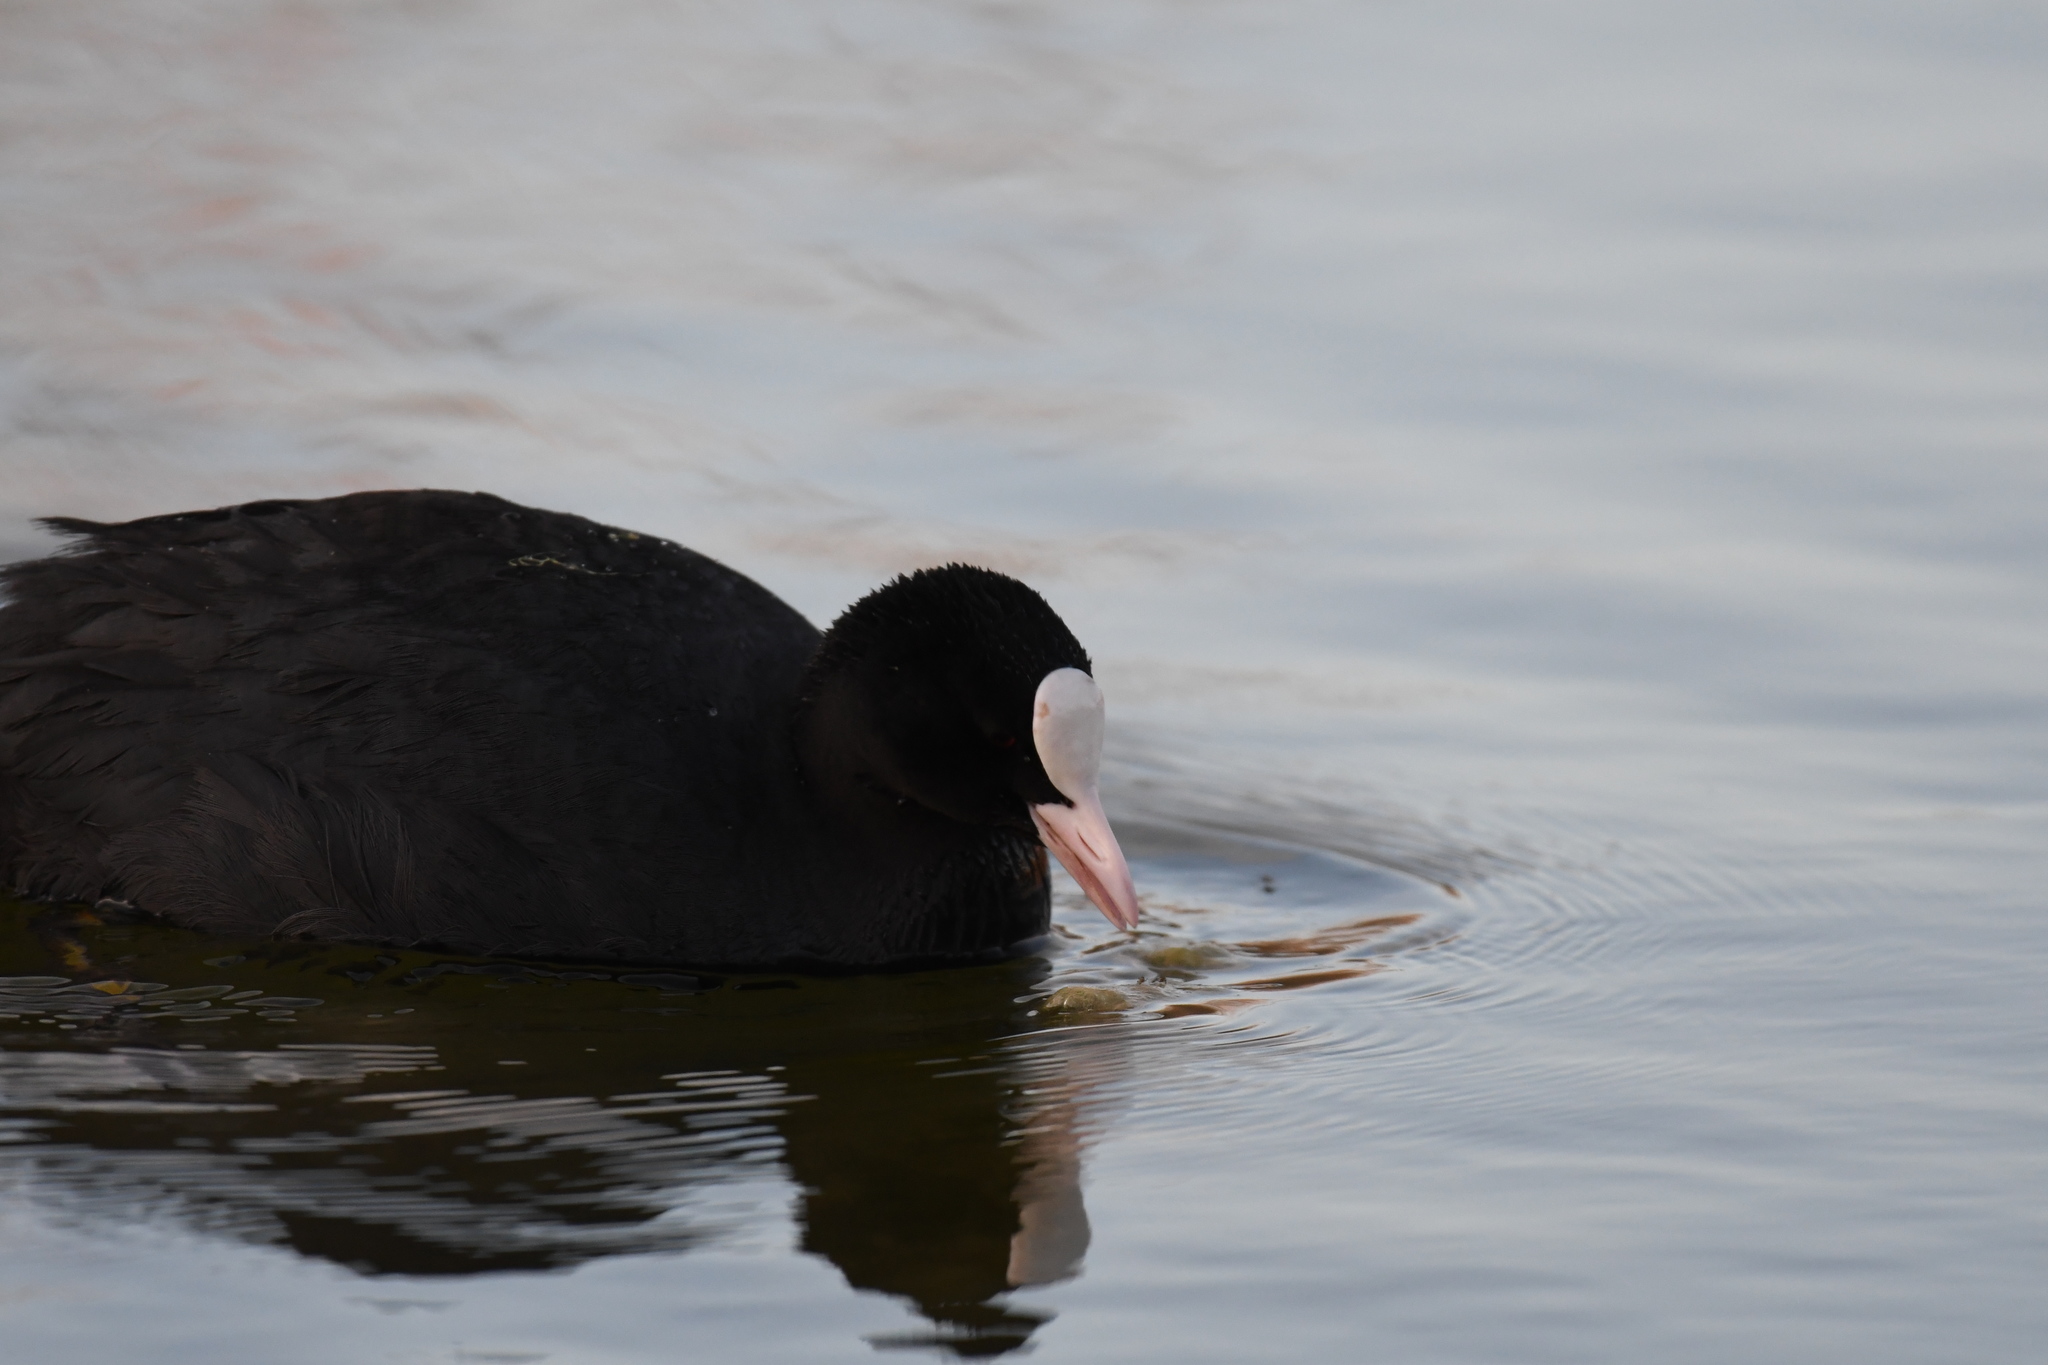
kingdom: Animalia
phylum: Chordata
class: Aves
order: Gruiformes
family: Rallidae
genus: Fulica
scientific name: Fulica atra
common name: Eurasian coot
